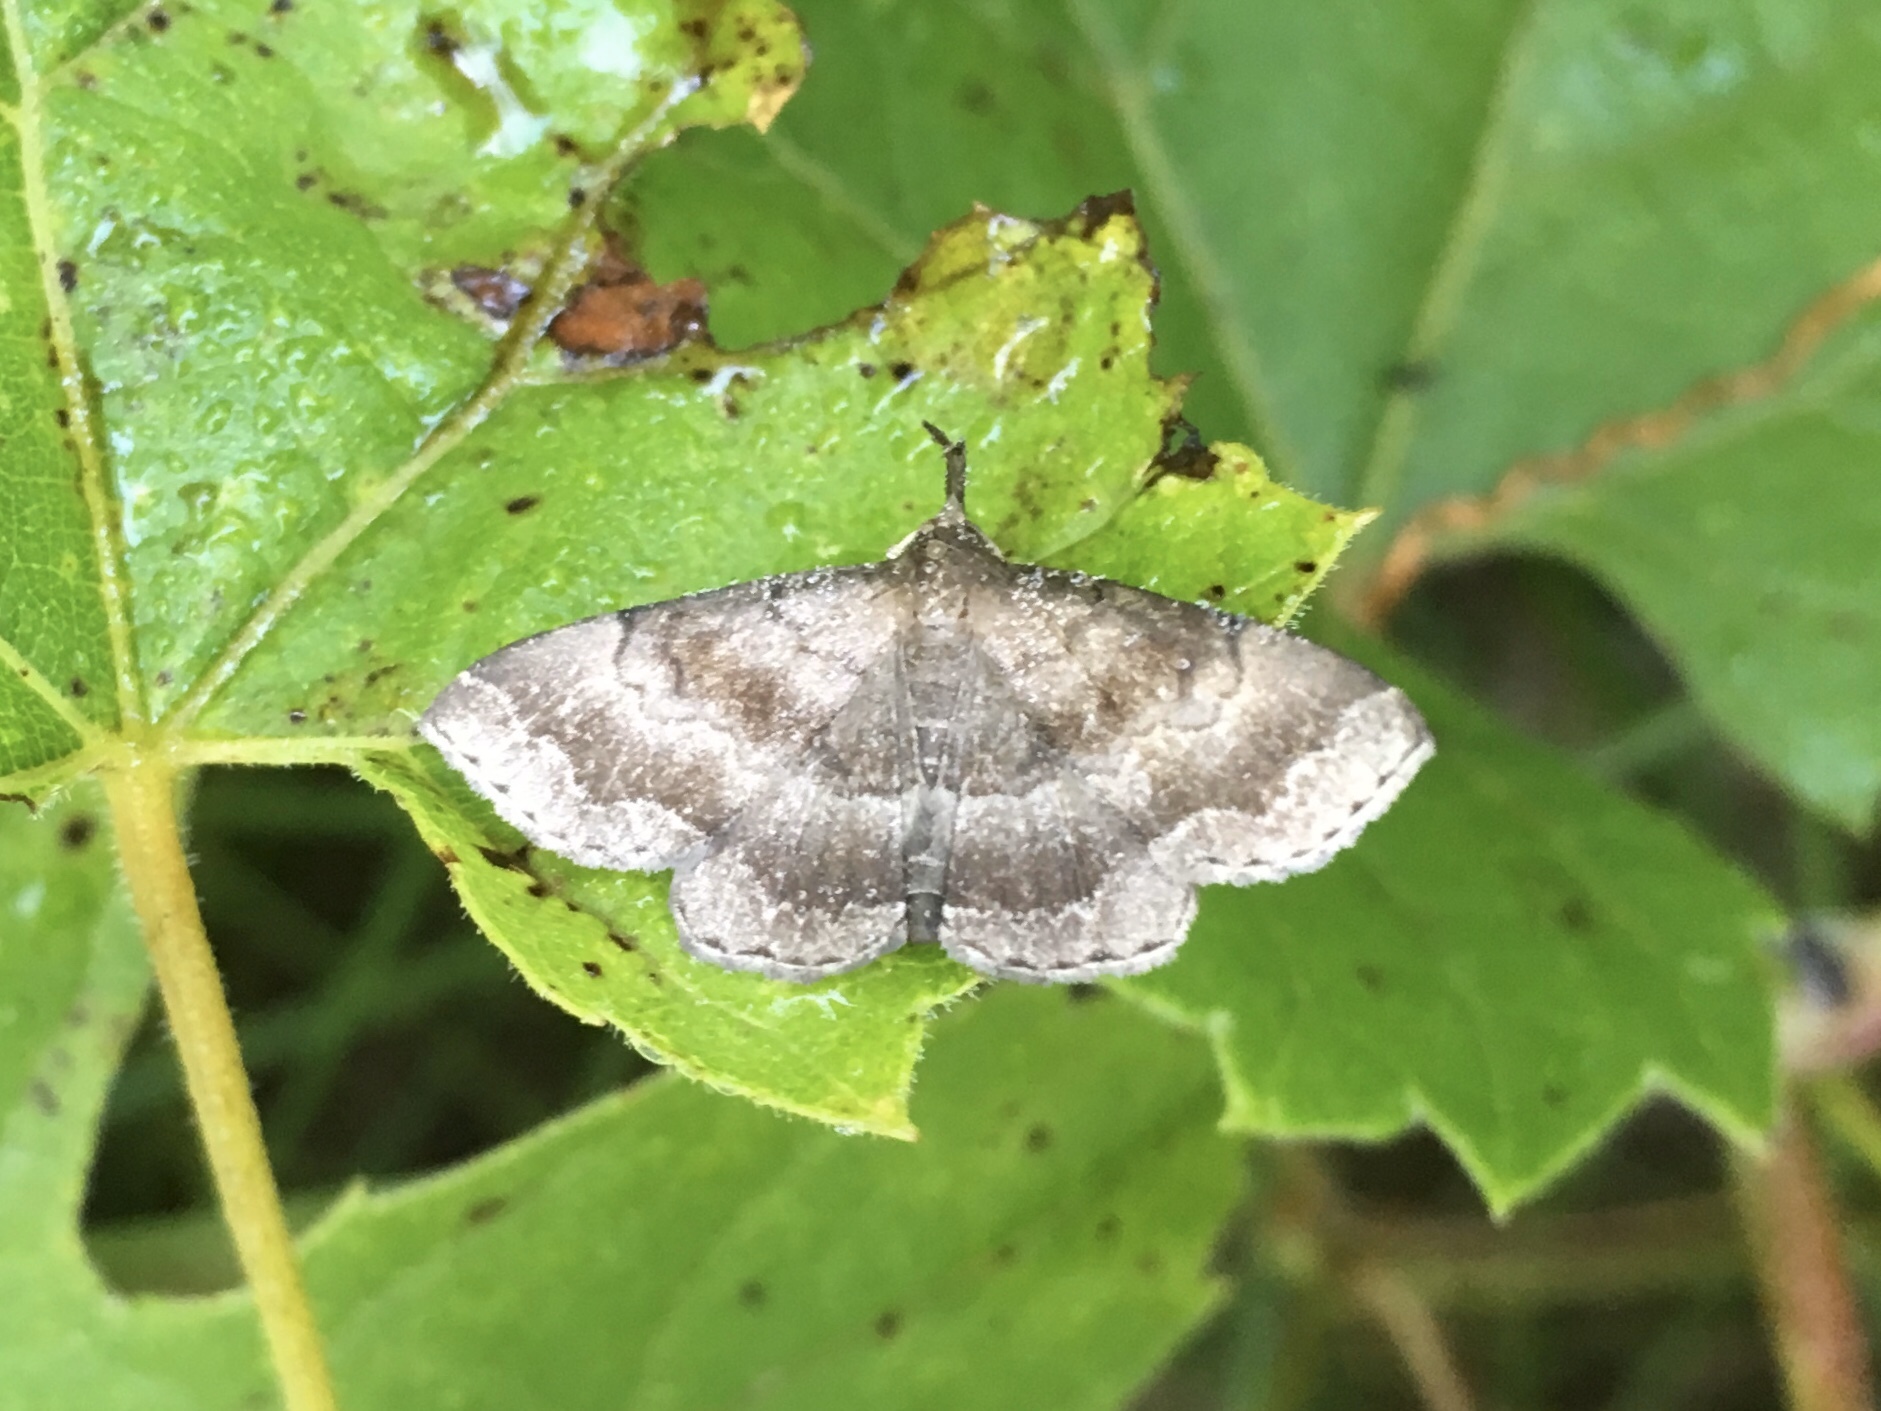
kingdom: Animalia
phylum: Arthropoda
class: Insecta
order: Lepidoptera
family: Erebidae
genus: Phalaenostola
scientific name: Phalaenostola larentioides
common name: Black-banded owlet
